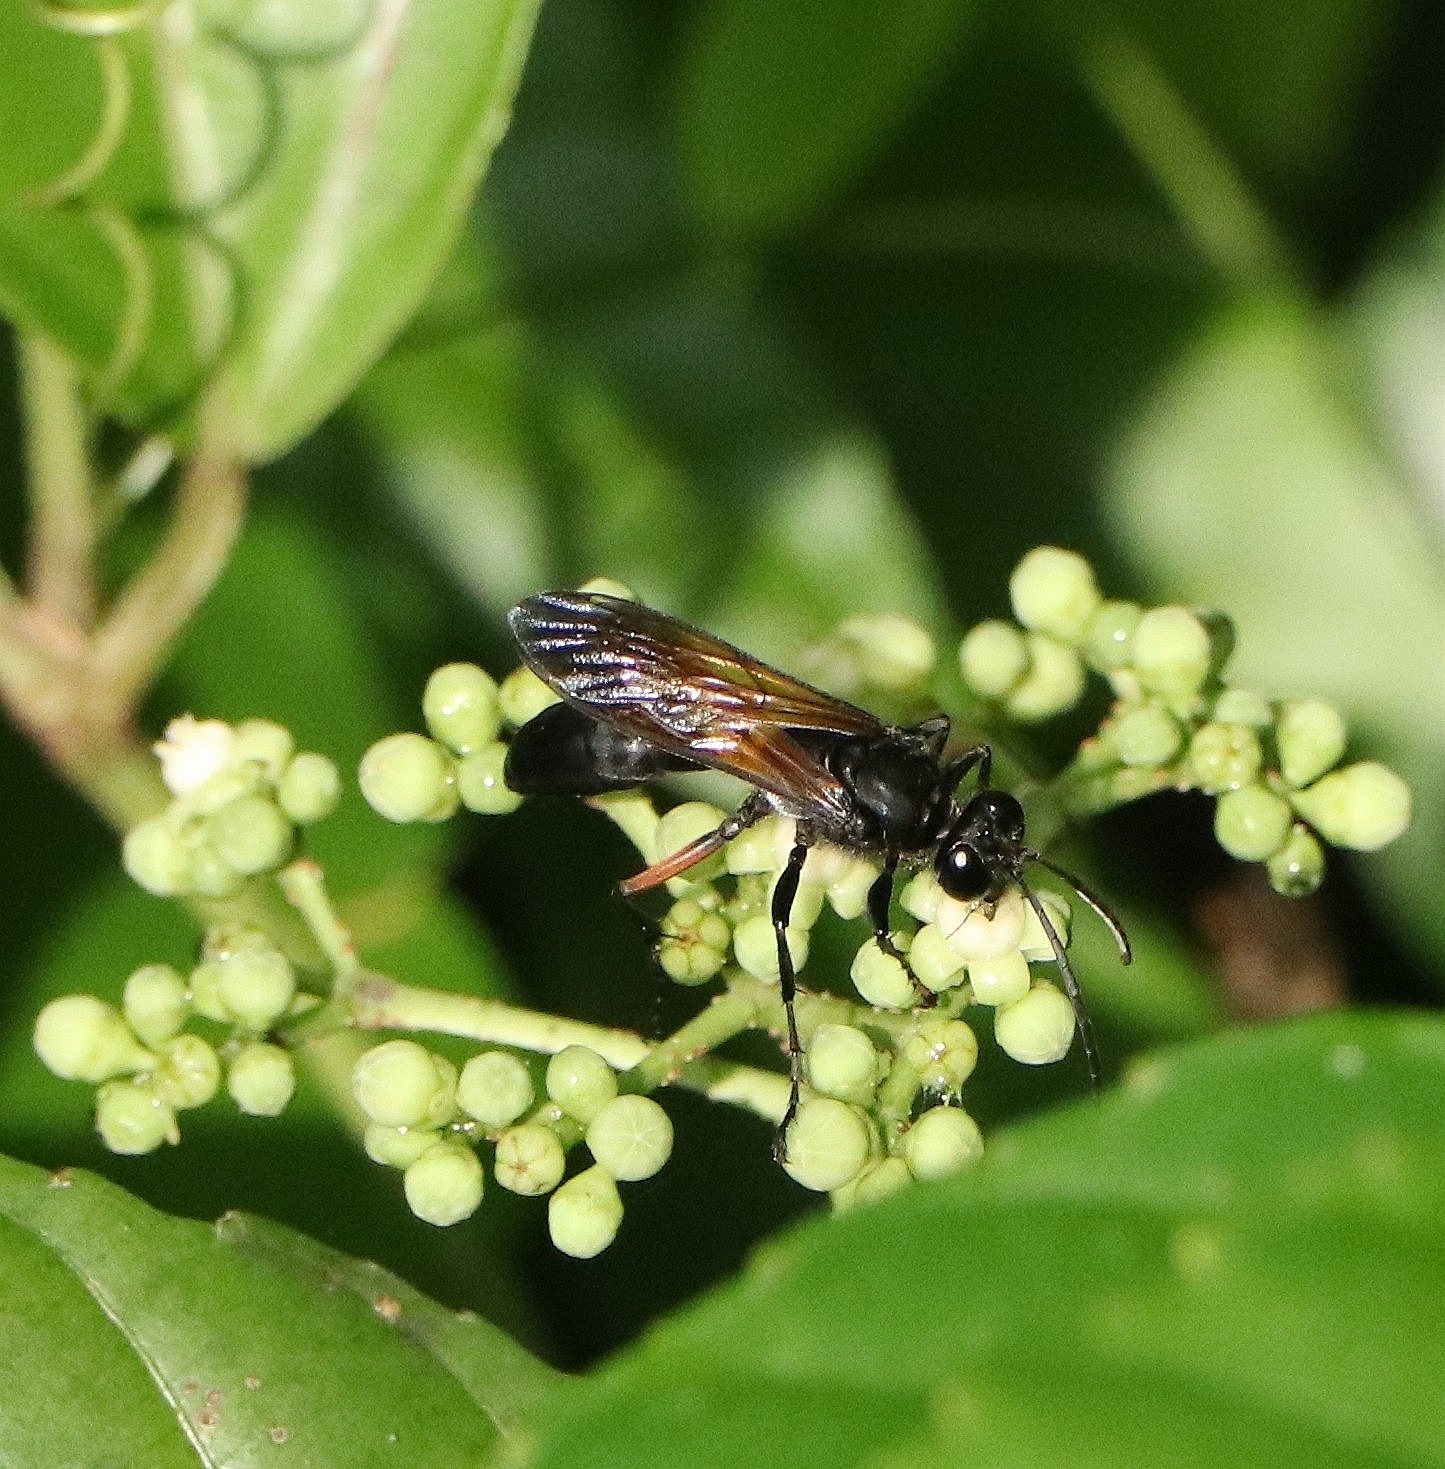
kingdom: Animalia
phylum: Arthropoda
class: Insecta
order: Hymenoptera
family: Sphecidae
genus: Sphex
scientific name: Sphex subtruncatus
